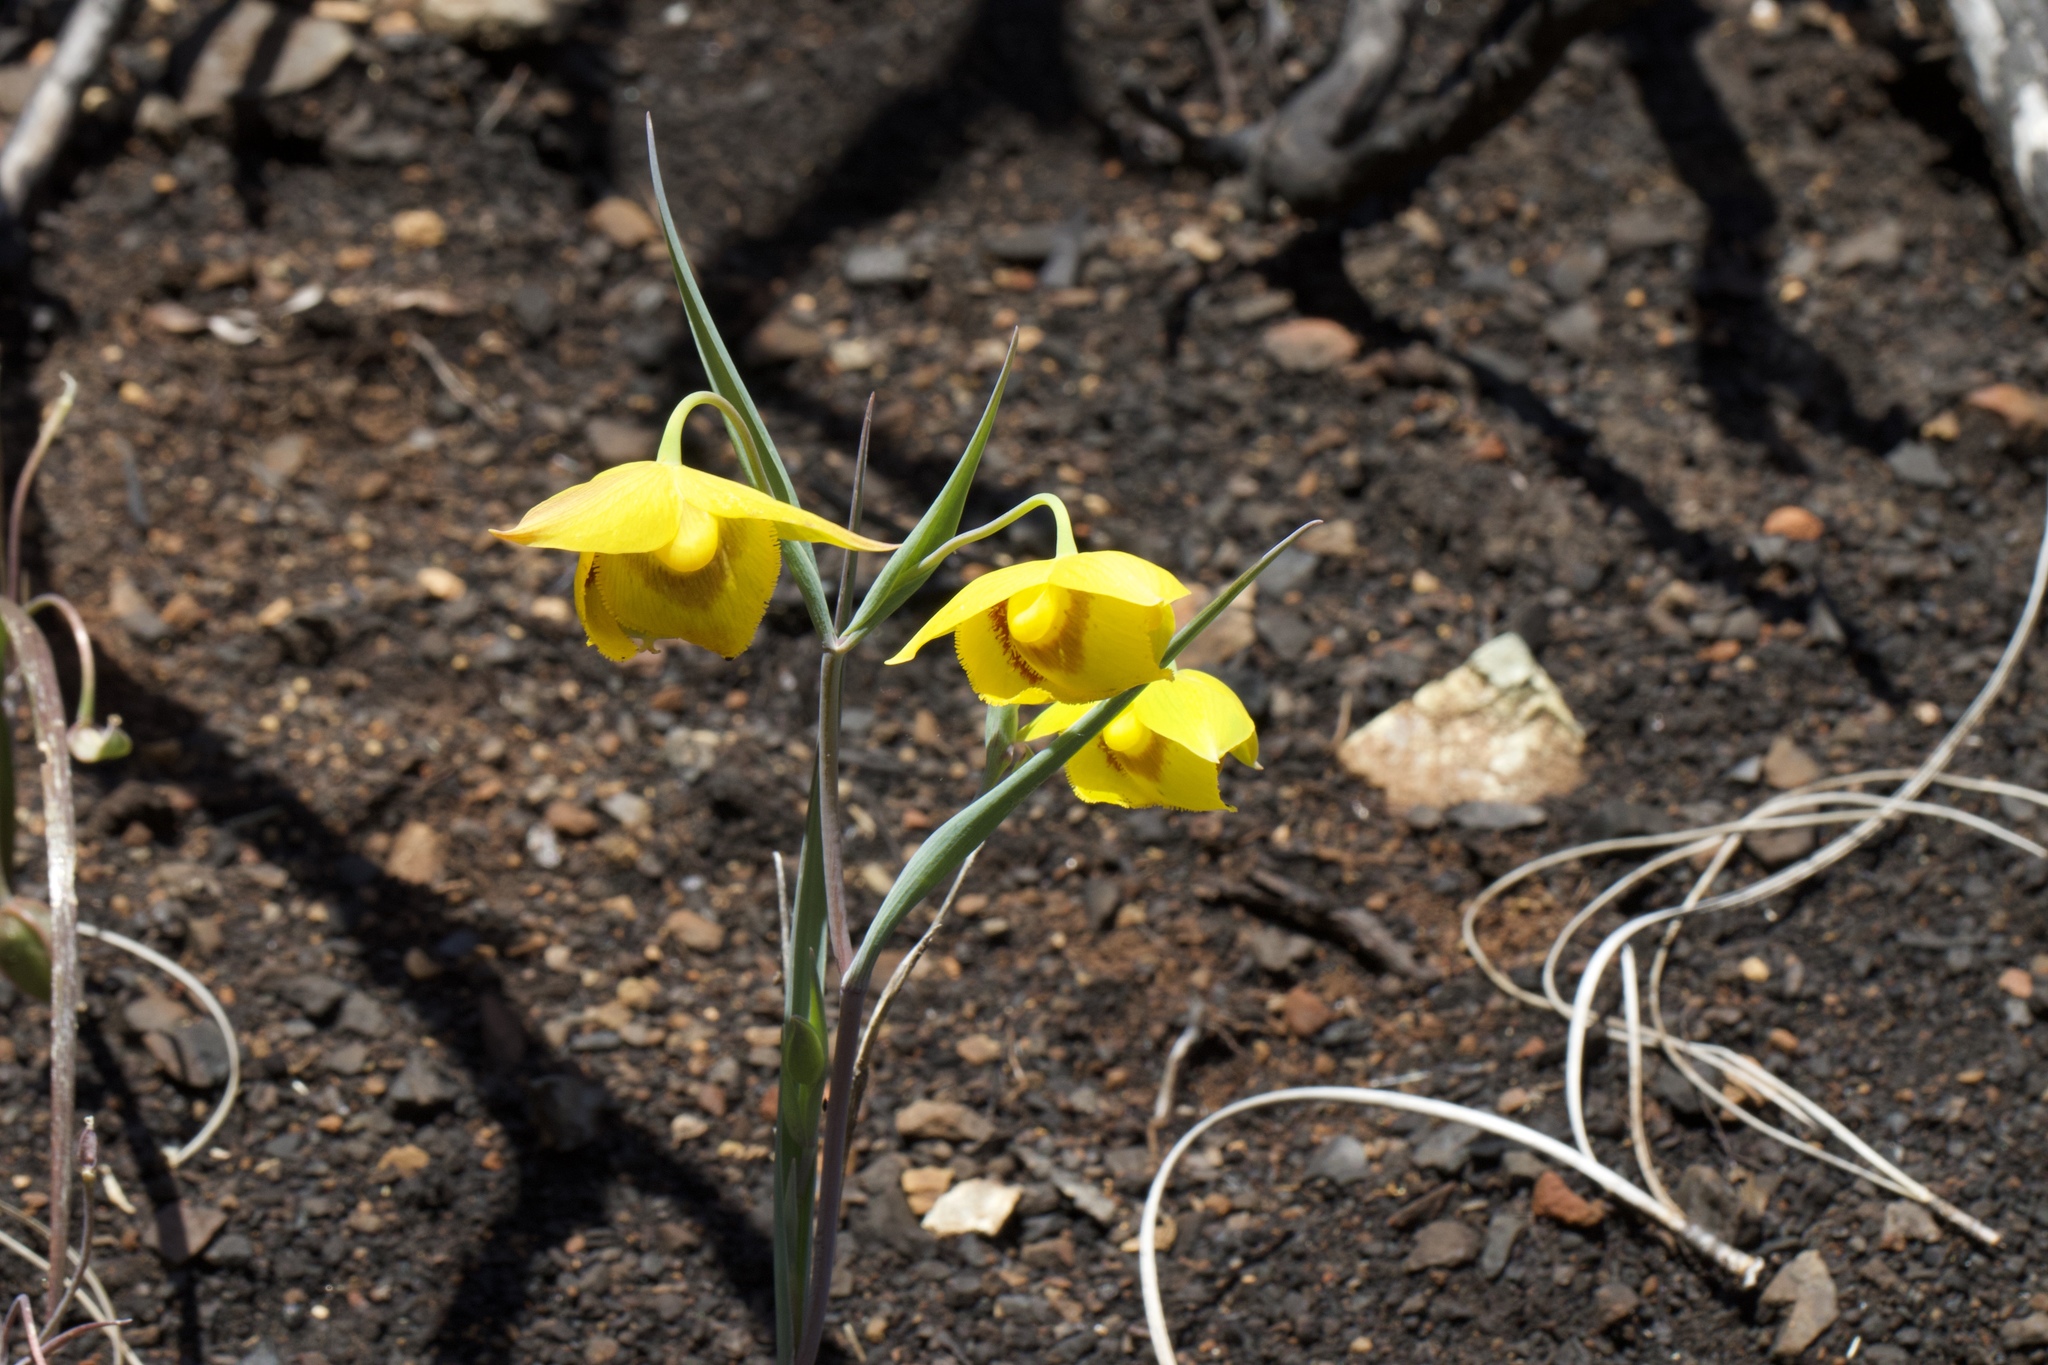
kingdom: Plantae
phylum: Tracheophyta
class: Liliopsida
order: Liliales
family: Liliaceae
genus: Calochortus
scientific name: Calochortus amabilis
